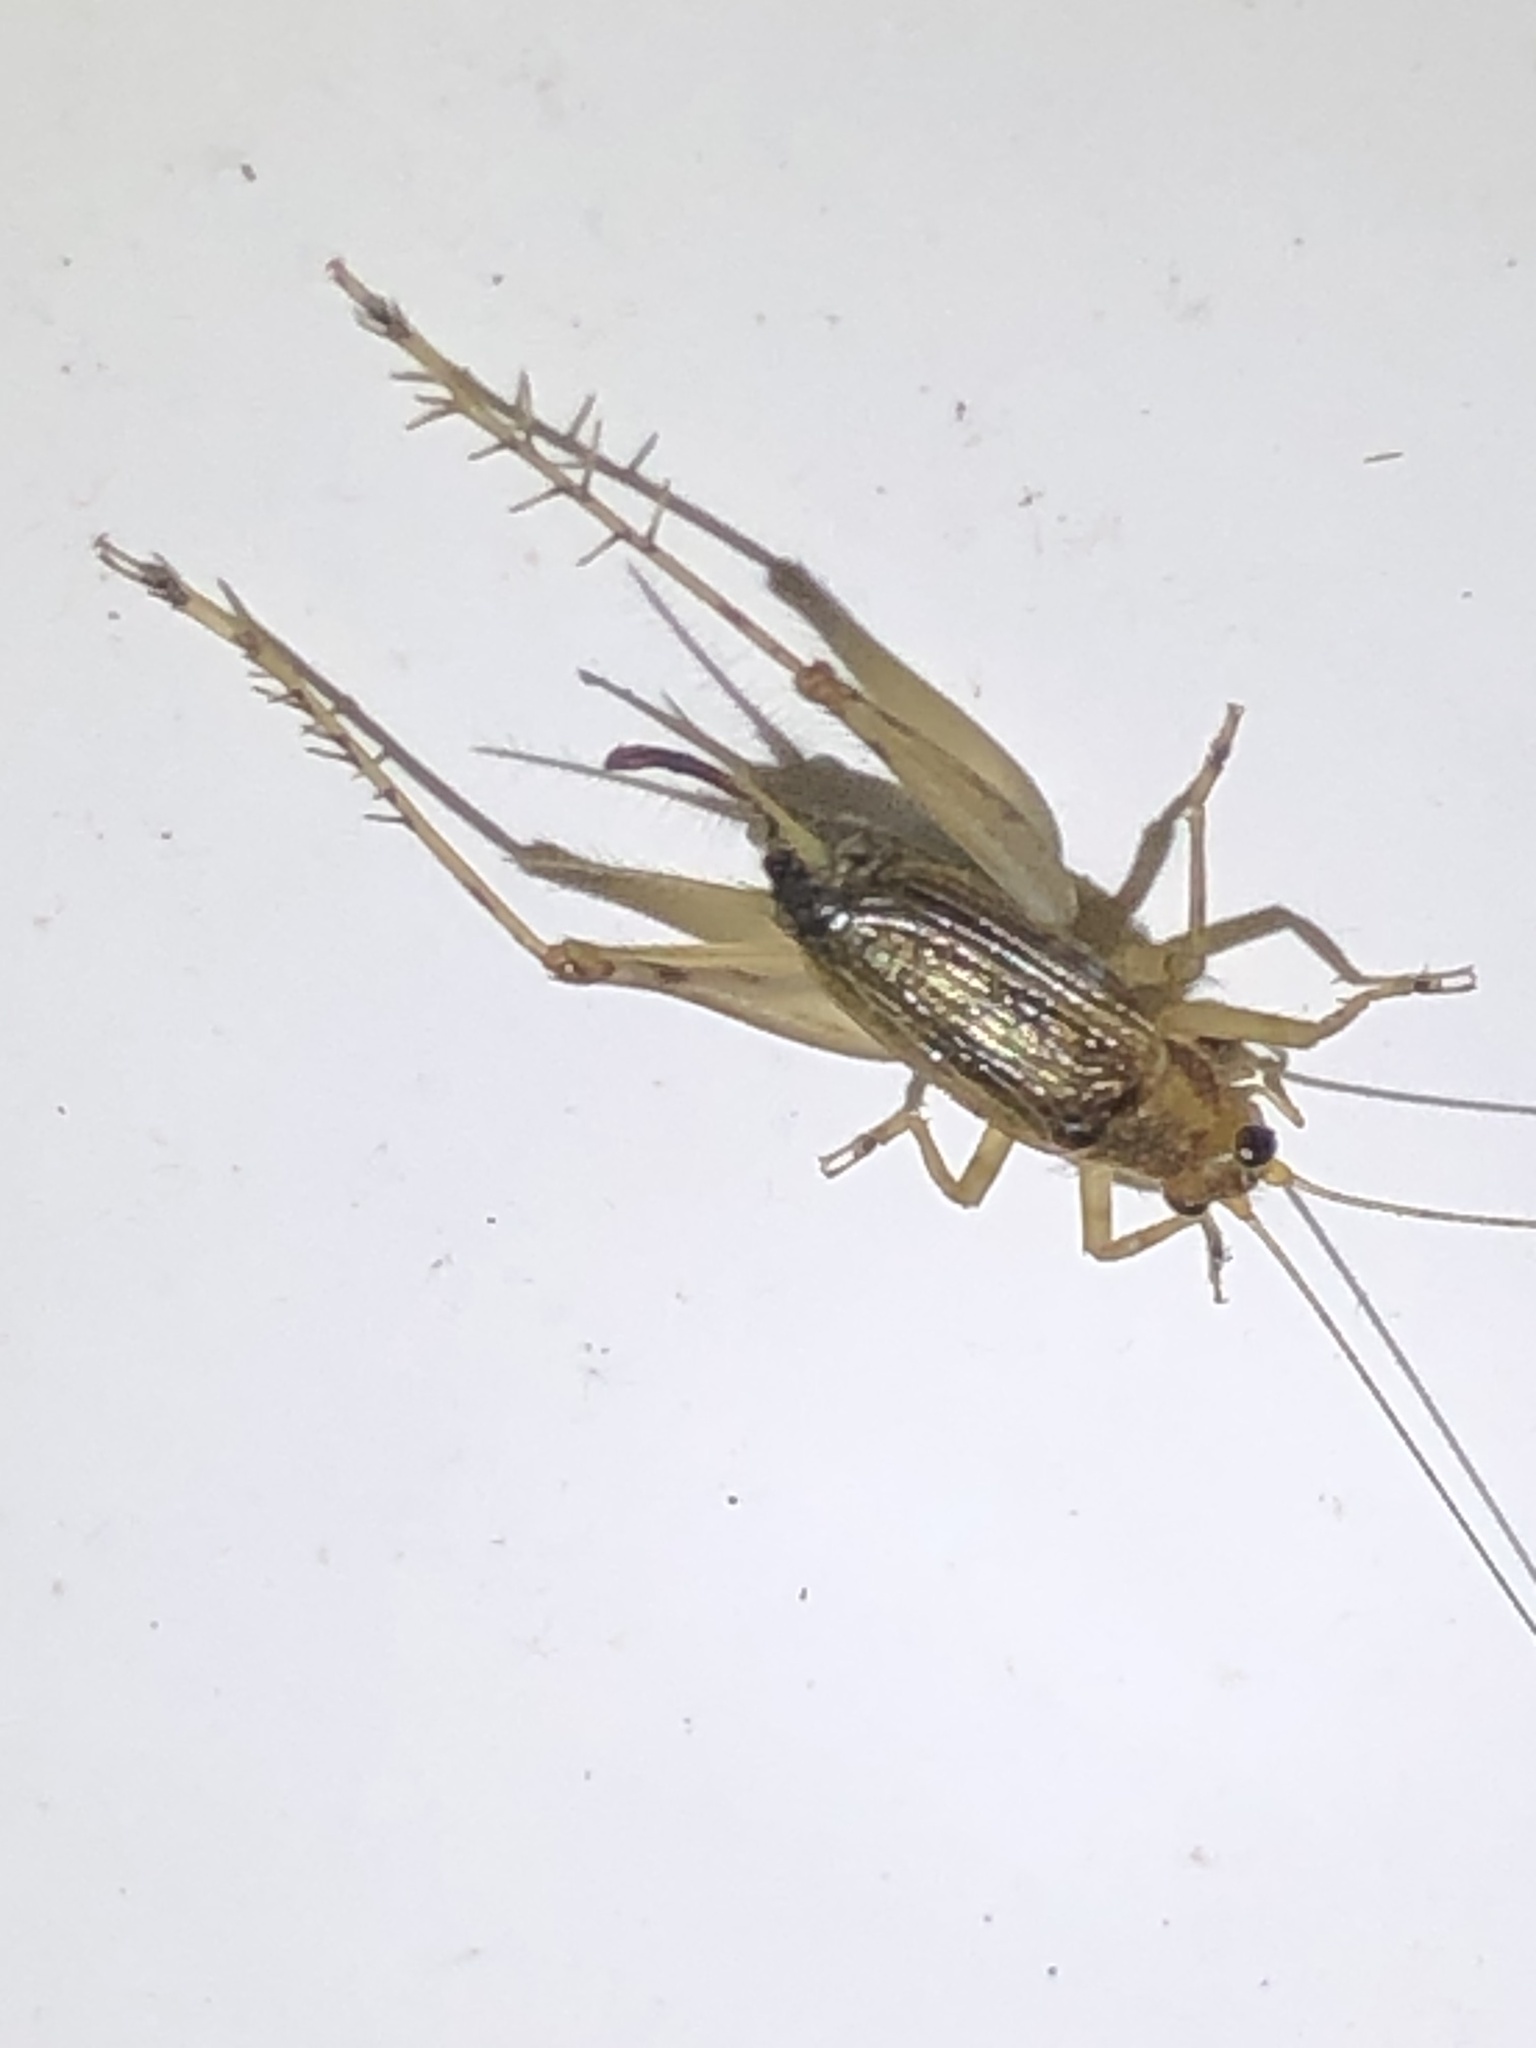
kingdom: Animalia
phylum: Arthropoda
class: Insecta
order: Orthoptera
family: Trigonidiidae
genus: Anaxipha
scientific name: Anaxipha exigua
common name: Say's bush cricket
